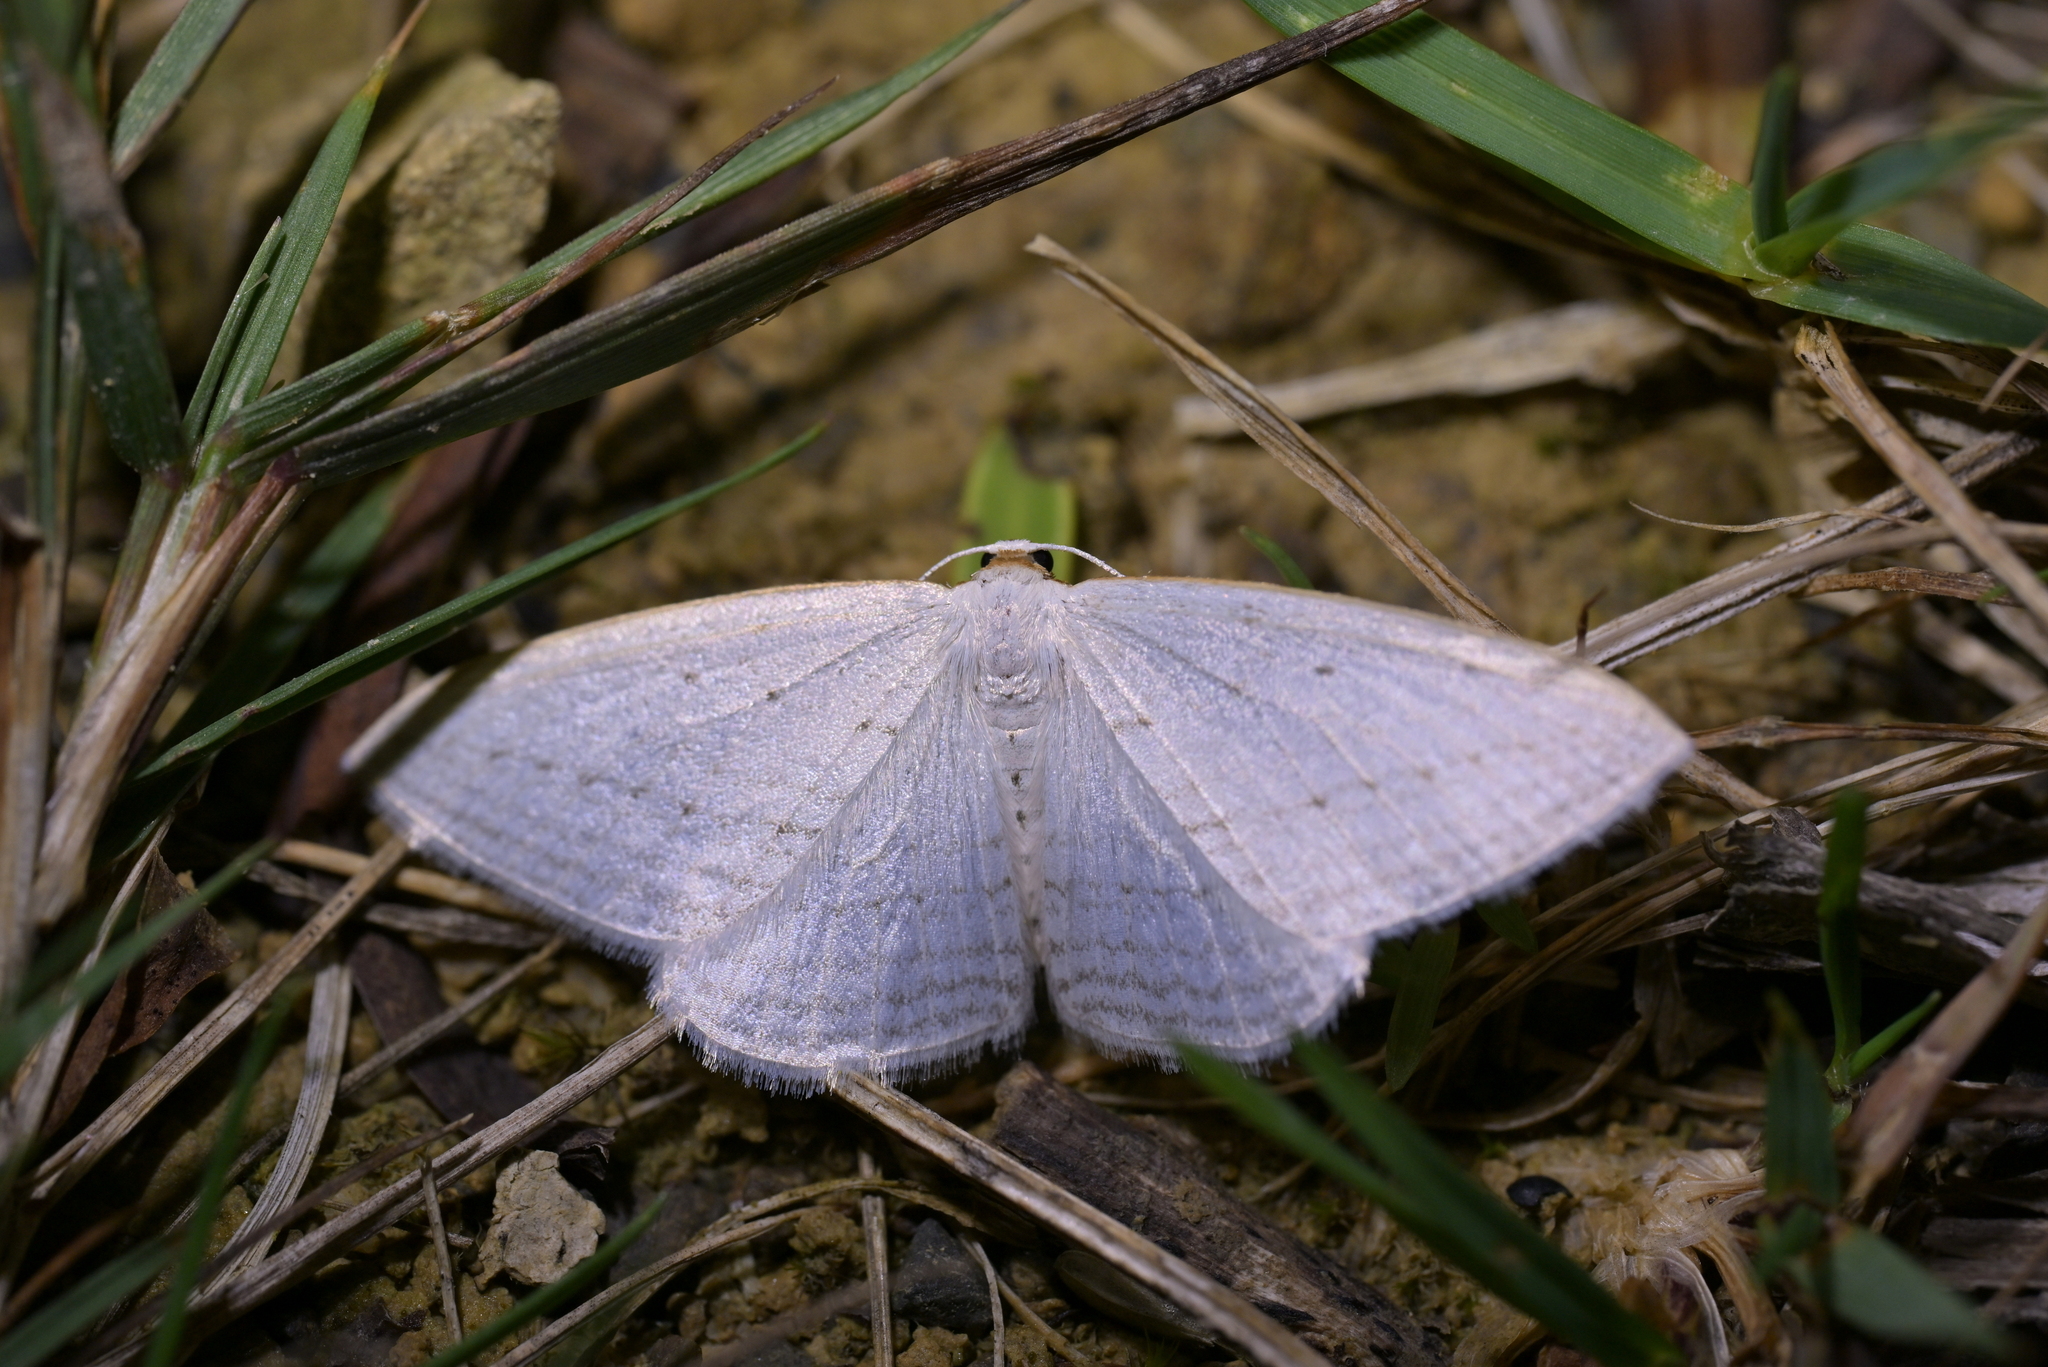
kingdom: Animalia
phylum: Arthropoda
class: Insecta
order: Lepidoptera
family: Geometridae
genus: Orthoclydon
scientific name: Orthoclydon praefectata
